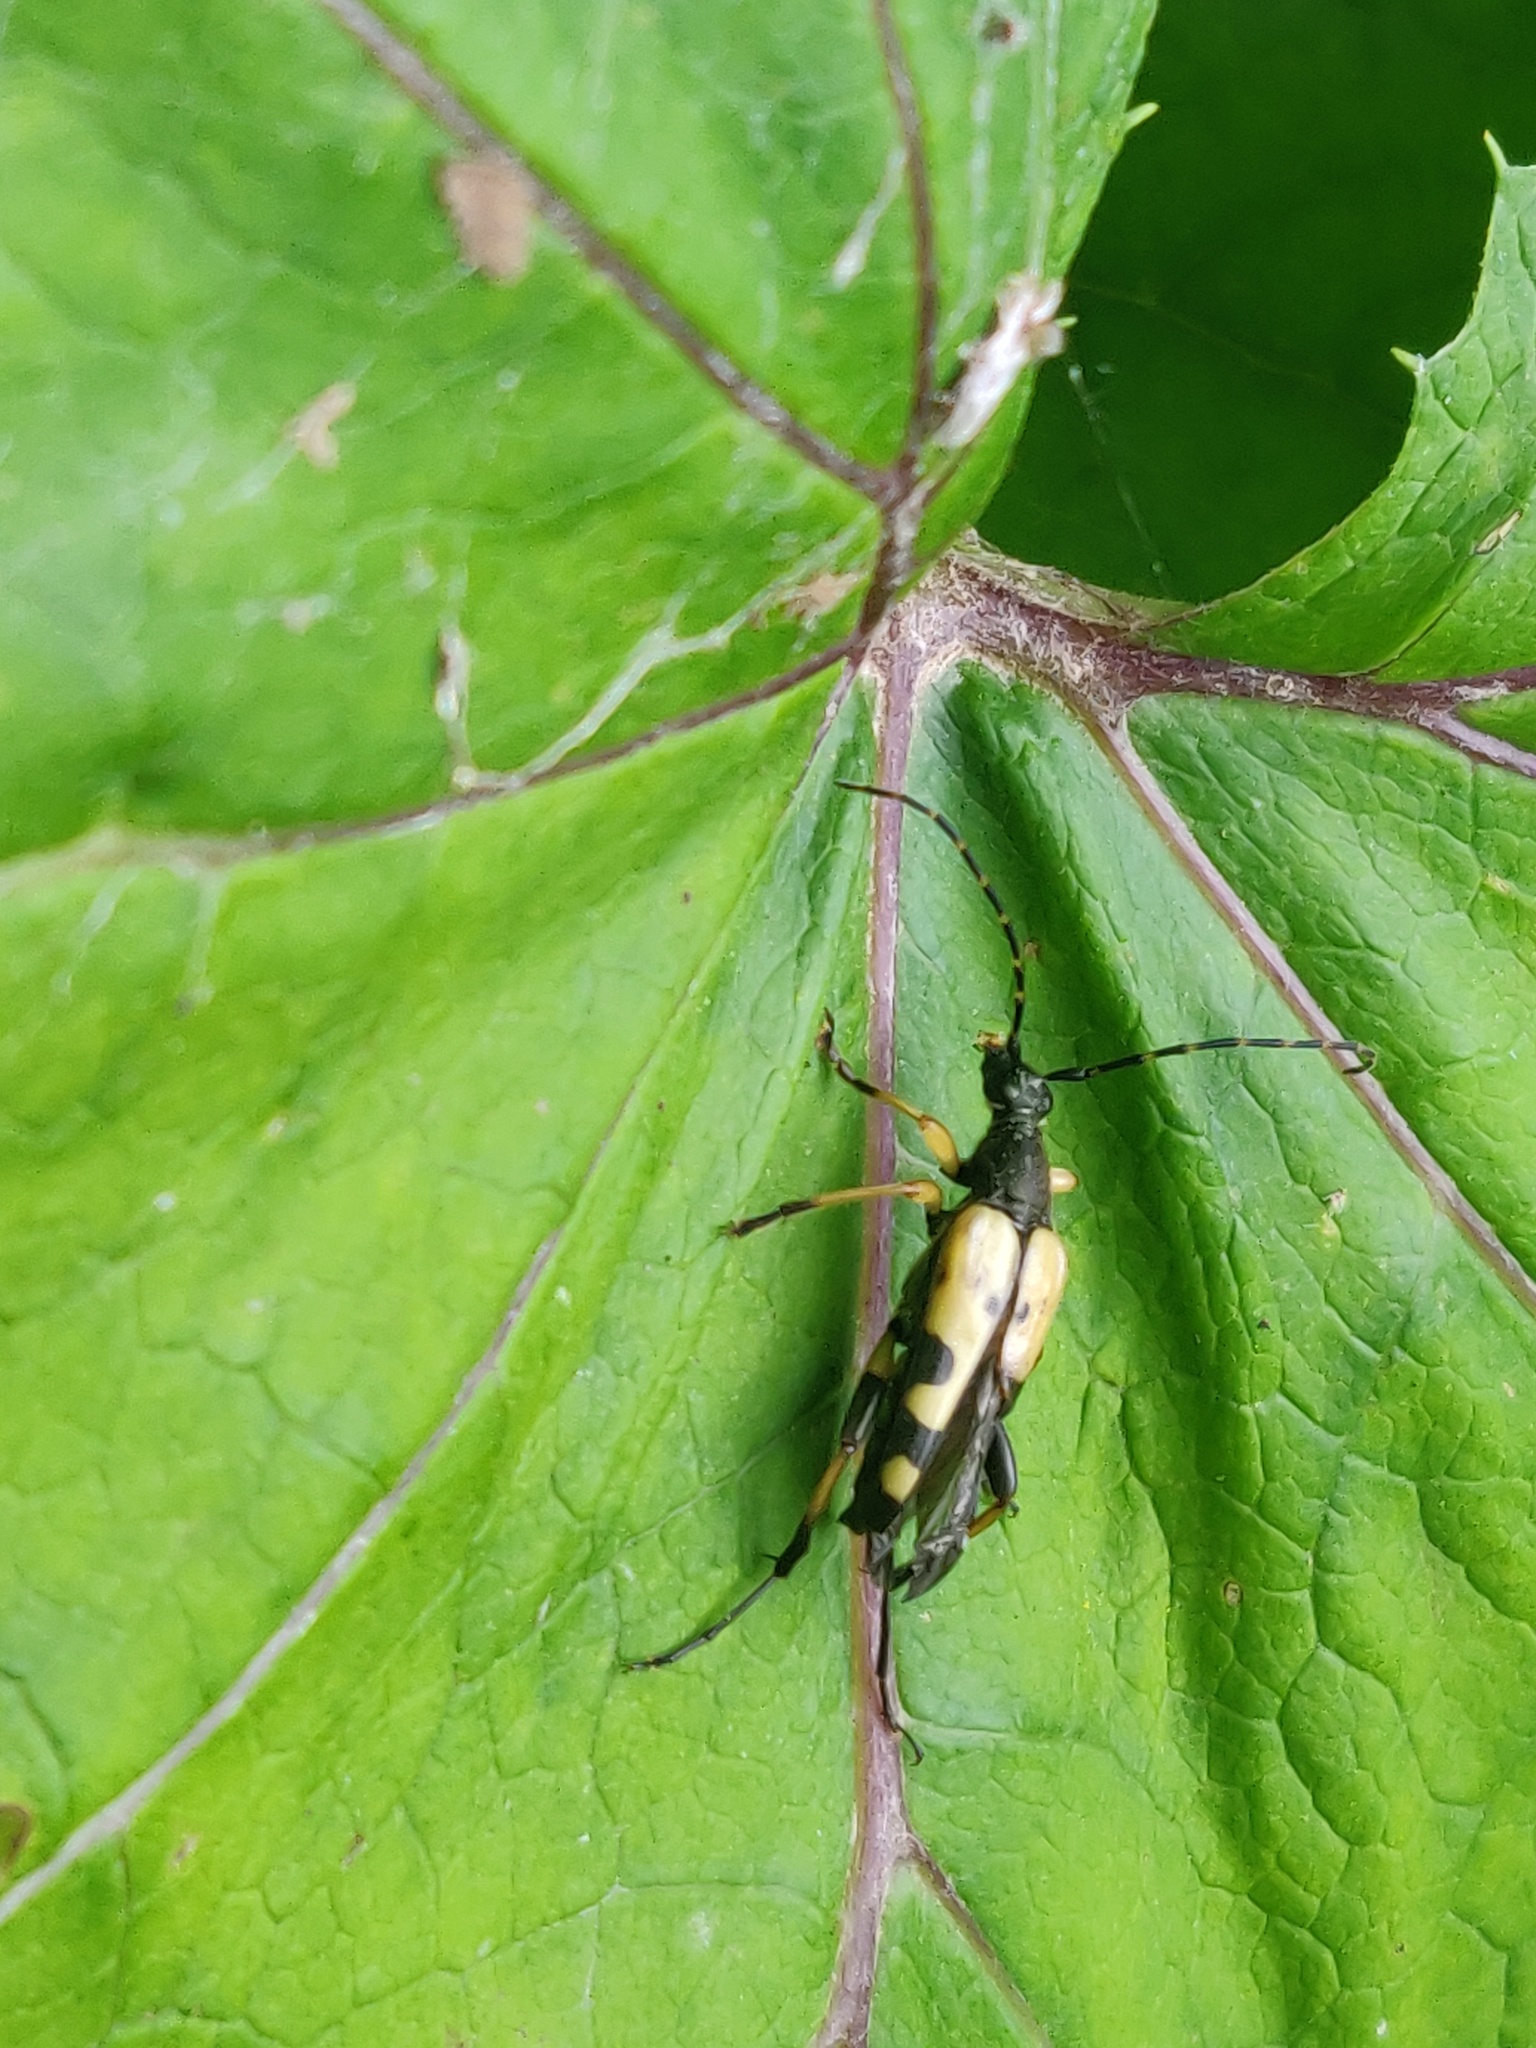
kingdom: Animalia
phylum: Arthropoda
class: Insecta
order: Coleoptera
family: Cerambycidae
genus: Rutpela
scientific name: Rutpela maculata
